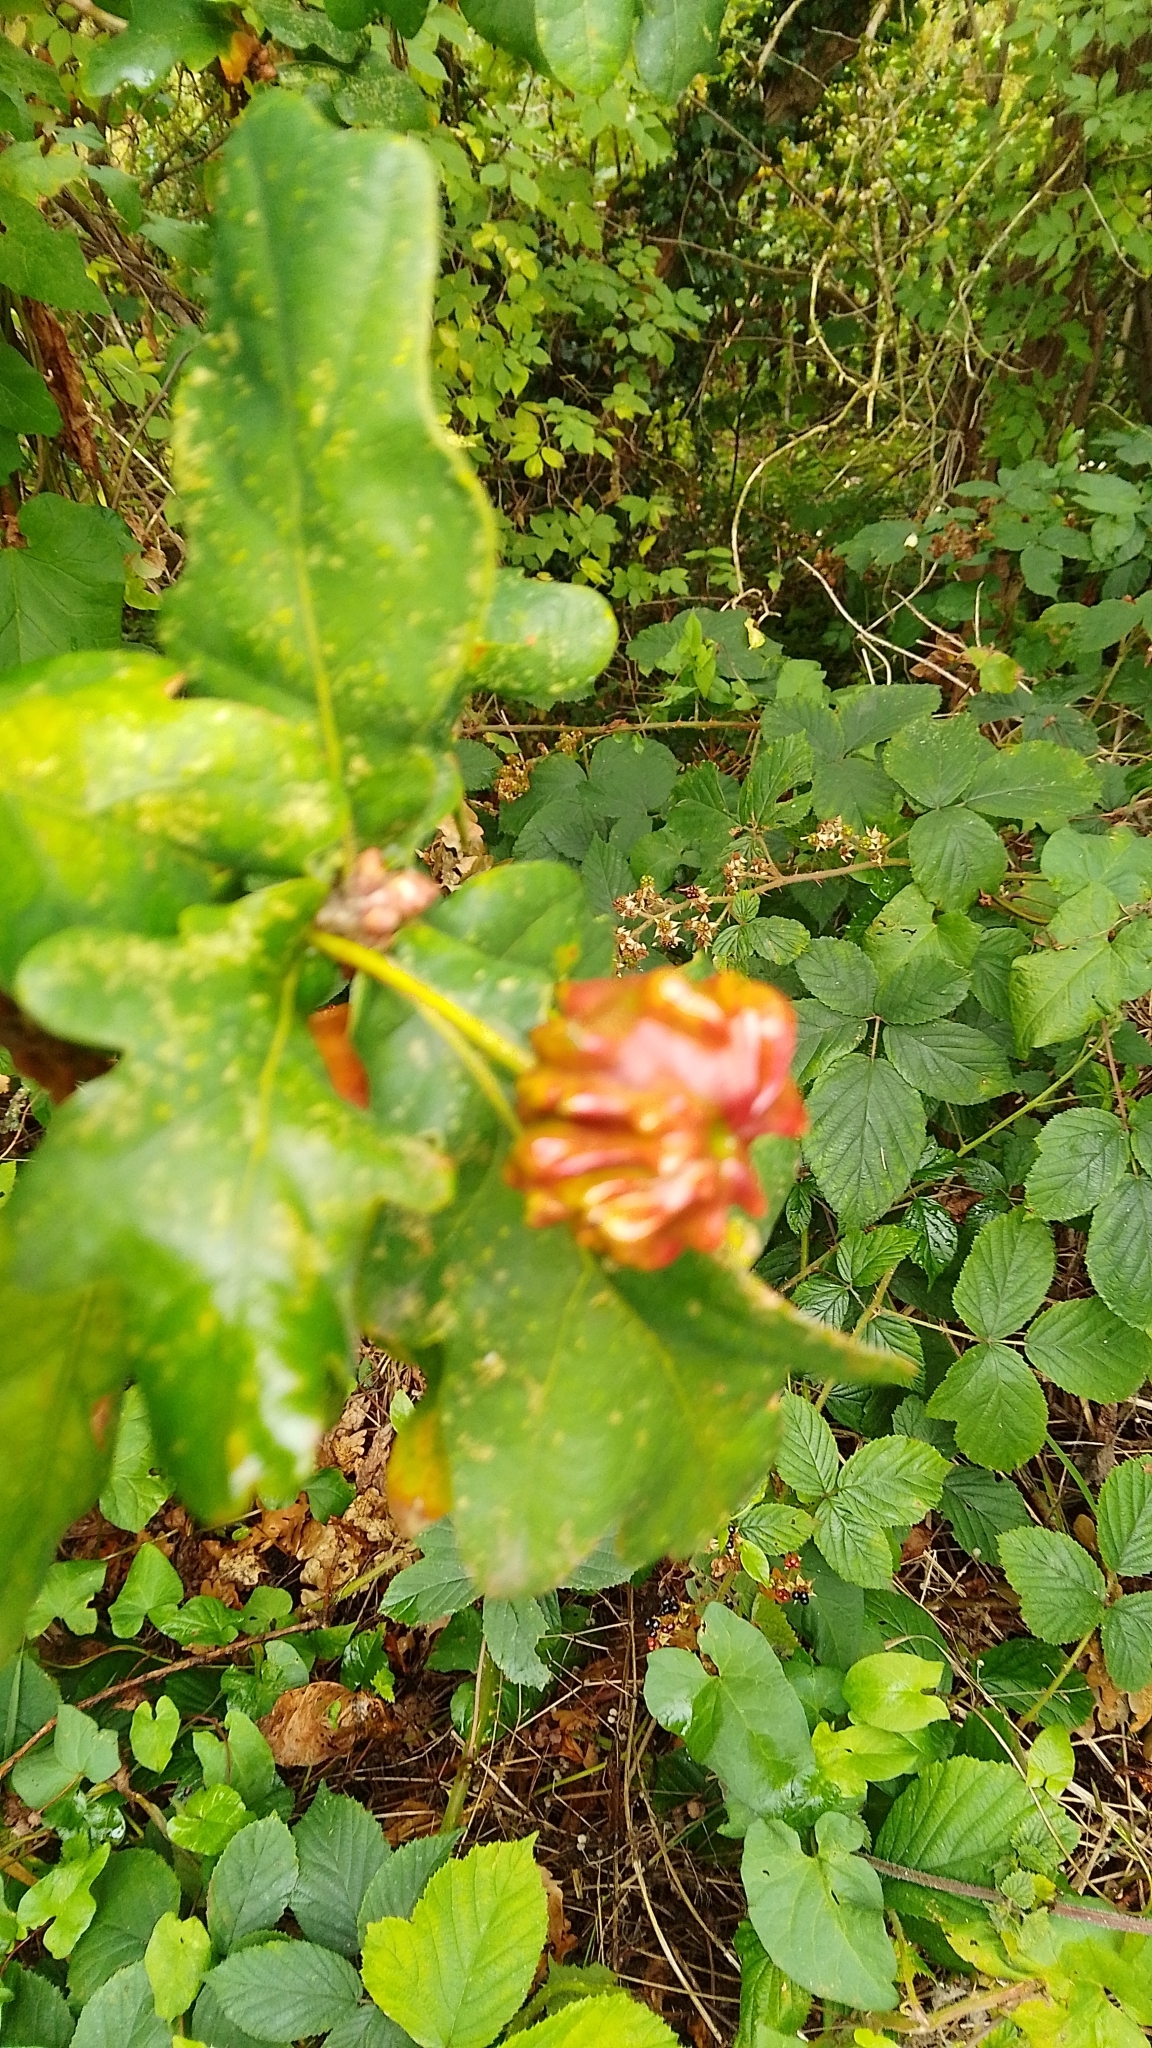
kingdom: Animalia
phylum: Arthropoda
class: Insecta
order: Hymenoptera
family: Cynipidae
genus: Andricus
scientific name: Andricus quercuscalicis
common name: Knopper gall
